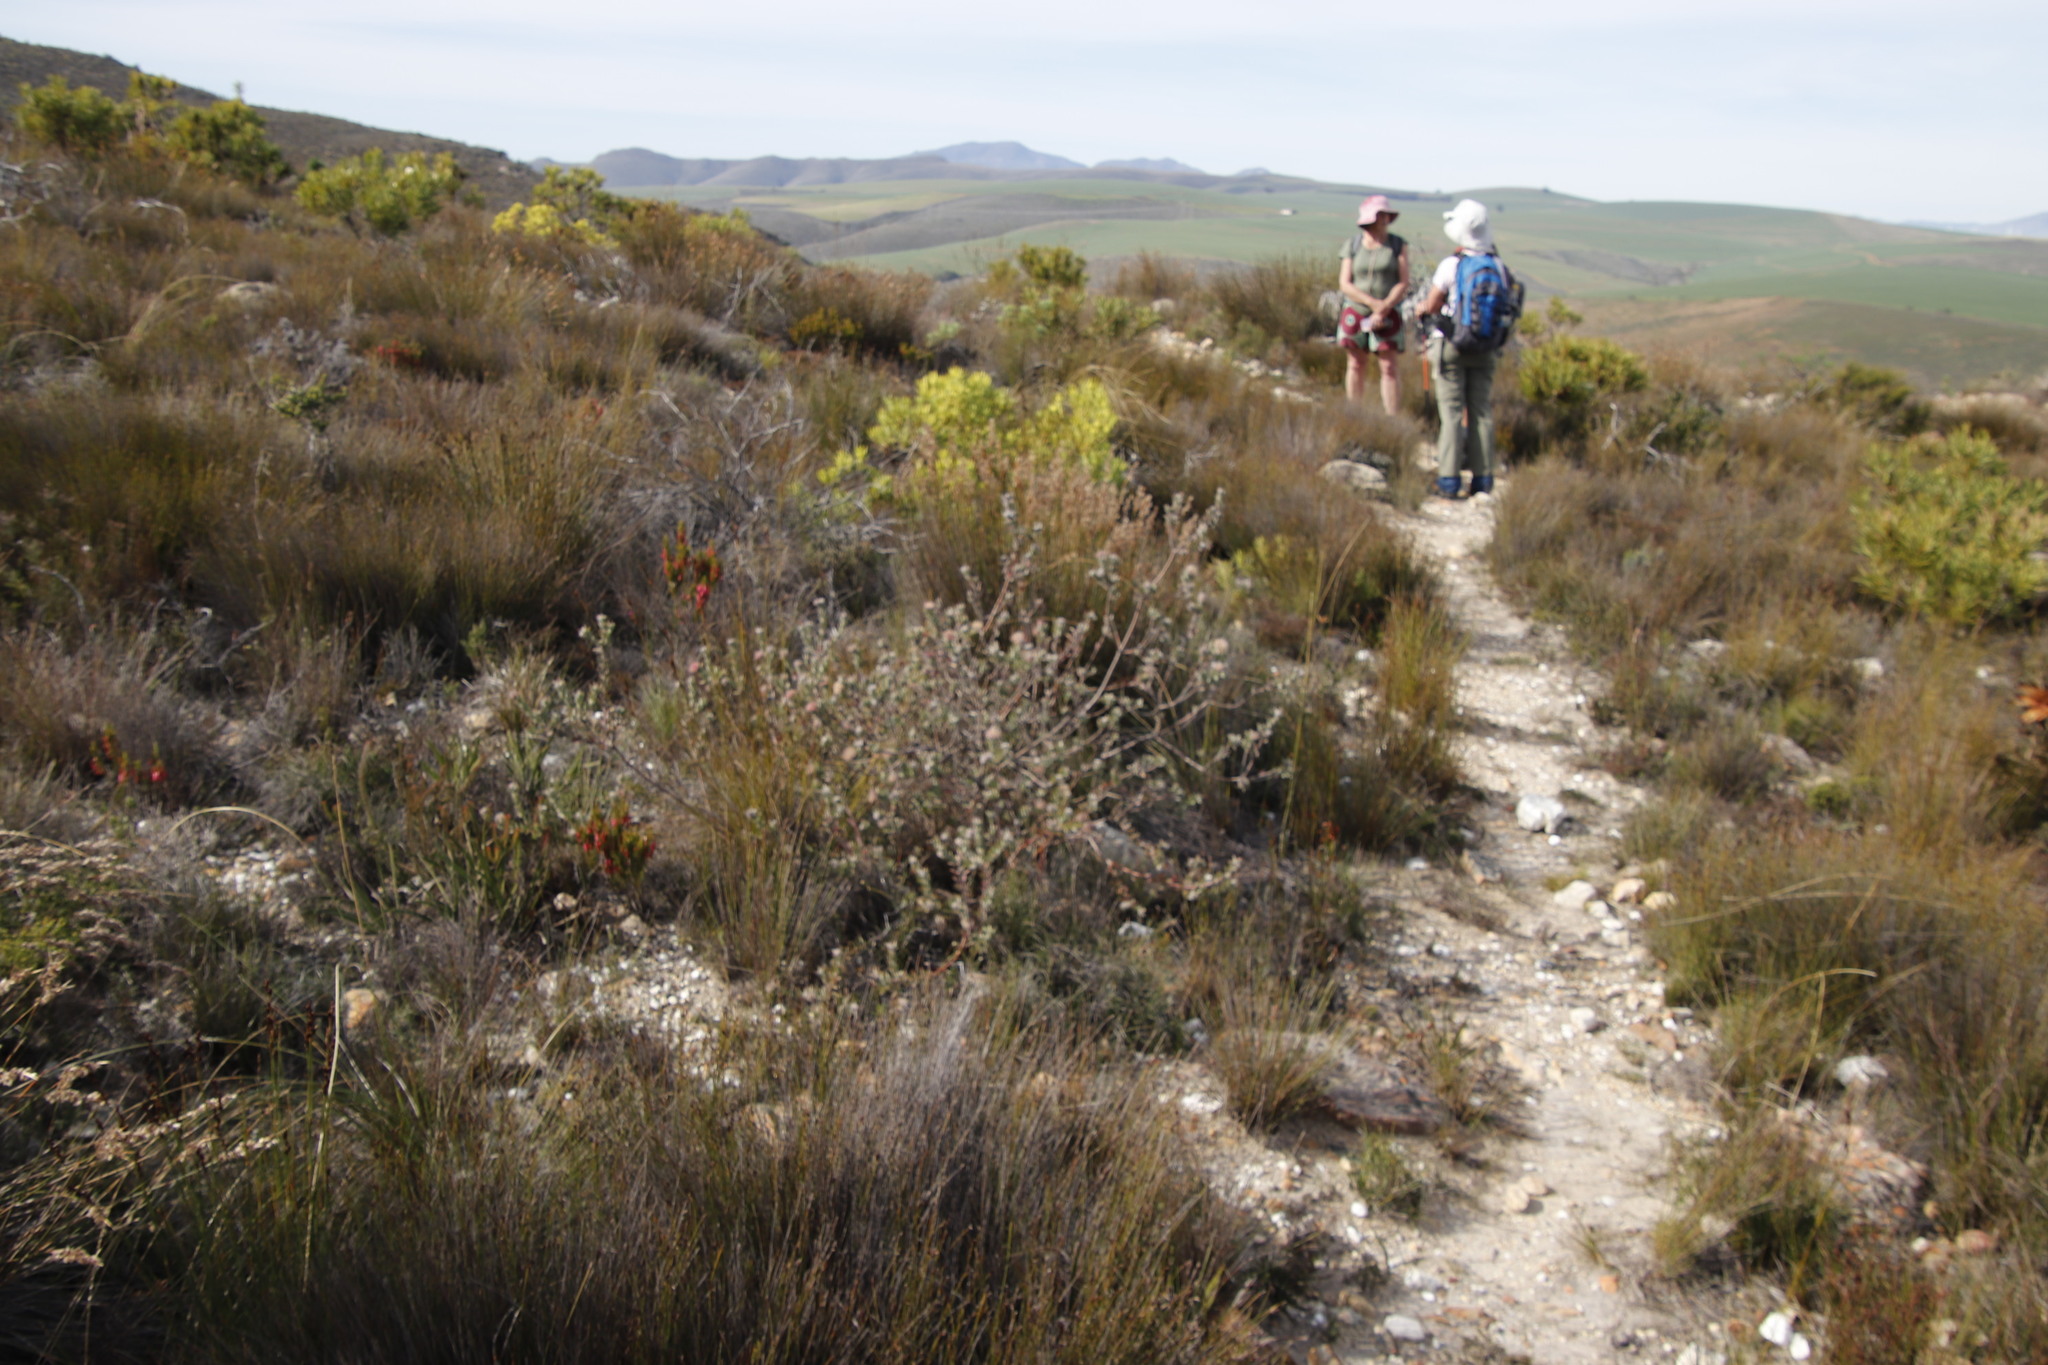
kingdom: Plantae
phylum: Tracheophyta
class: Magnoliopsida
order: Proteales
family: Proteaceae
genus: Leucospermum
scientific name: Leucospermum calligerum
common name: Arid pincushion
